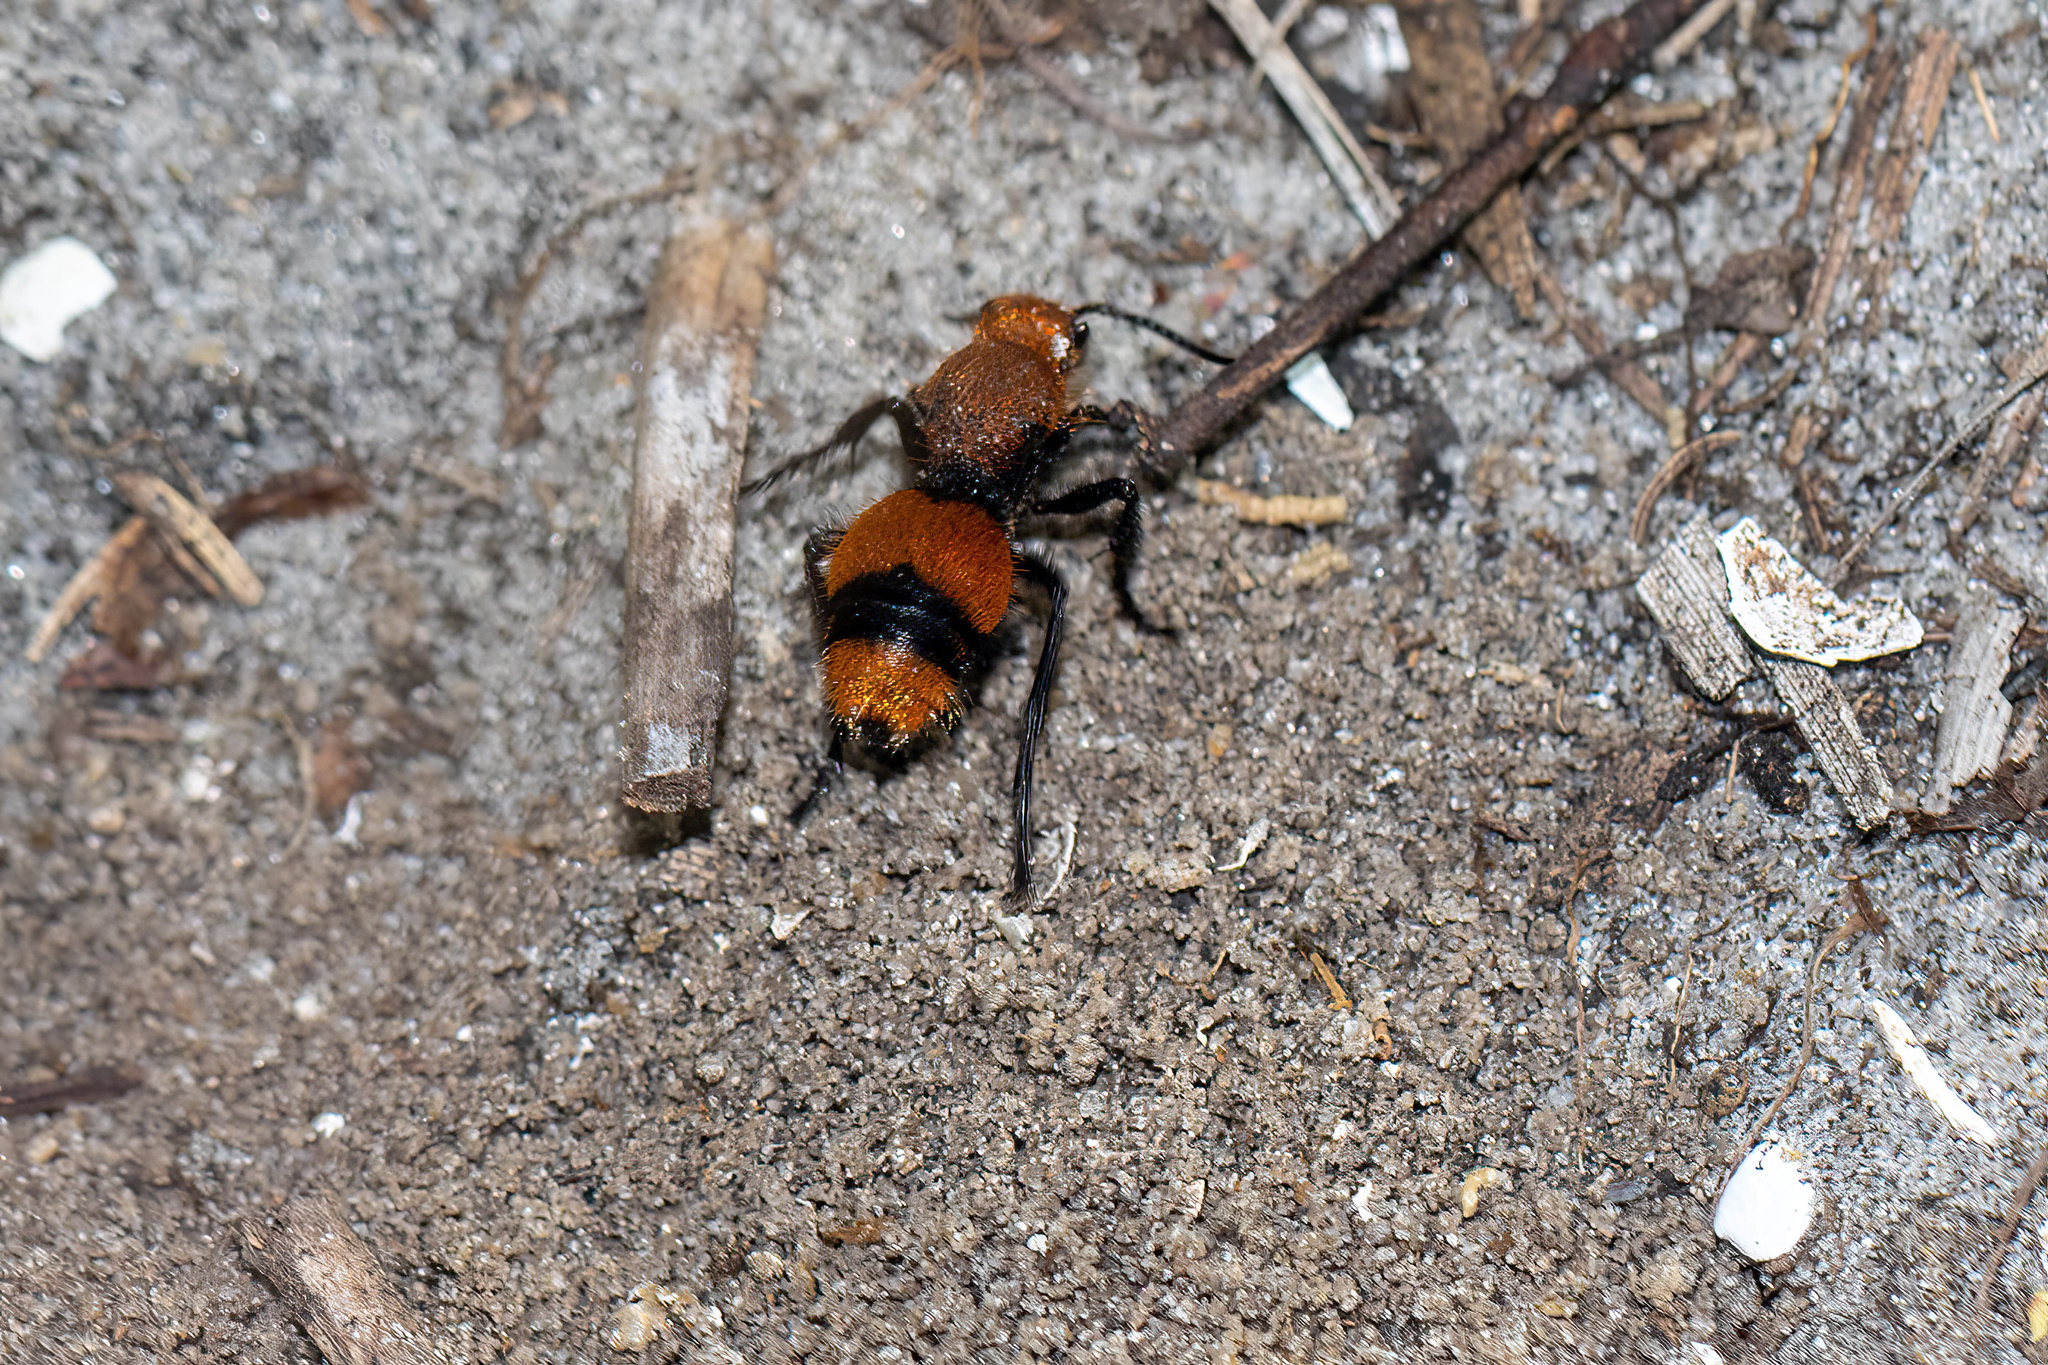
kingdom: Animalia
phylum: Arthropoda
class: Insecta
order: Hymenoptera
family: Mutillidae
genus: Dasymutilla
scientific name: Dasymutilla occidentalis
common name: Common eastern velvet ant
